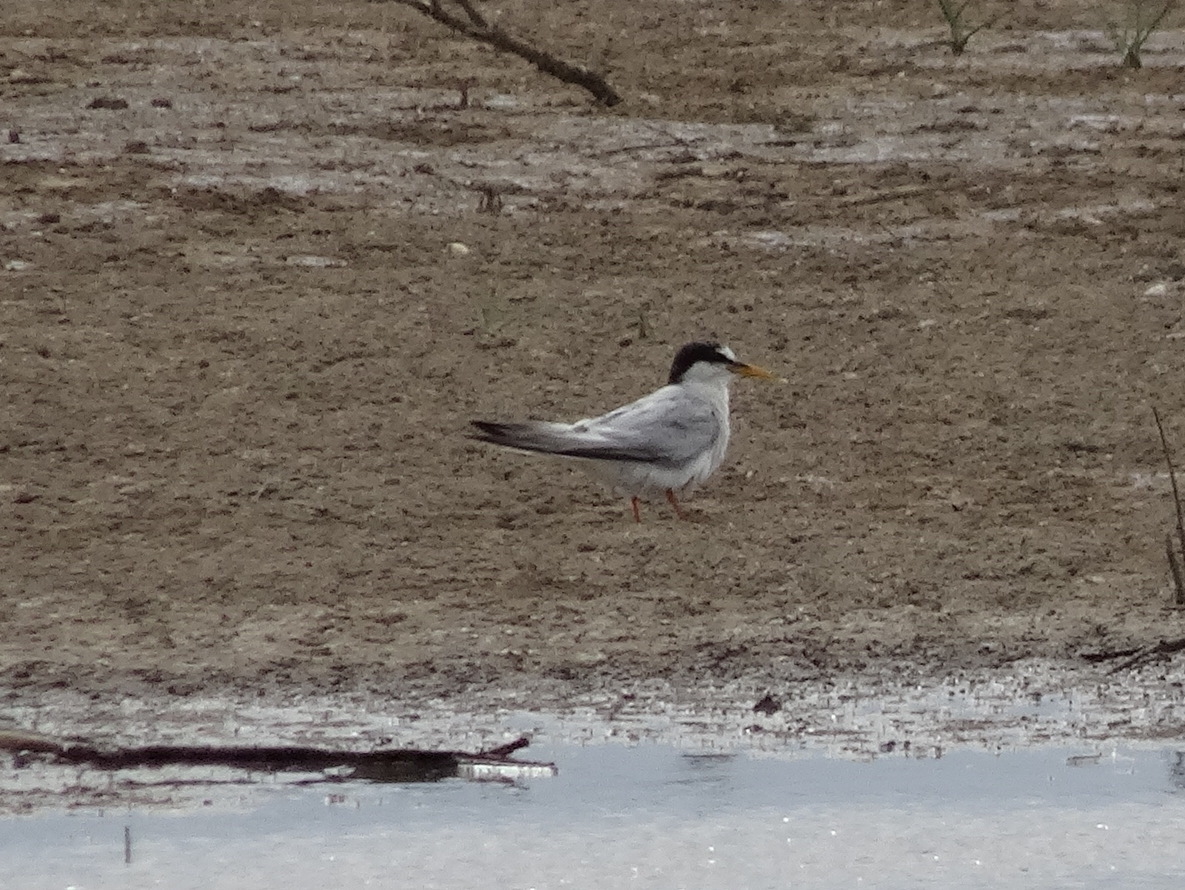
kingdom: Animalia
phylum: Chordata
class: Aves
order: Charadriiformes
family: Laridae
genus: Sternula
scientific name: Sternula albifrons
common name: Little tern
